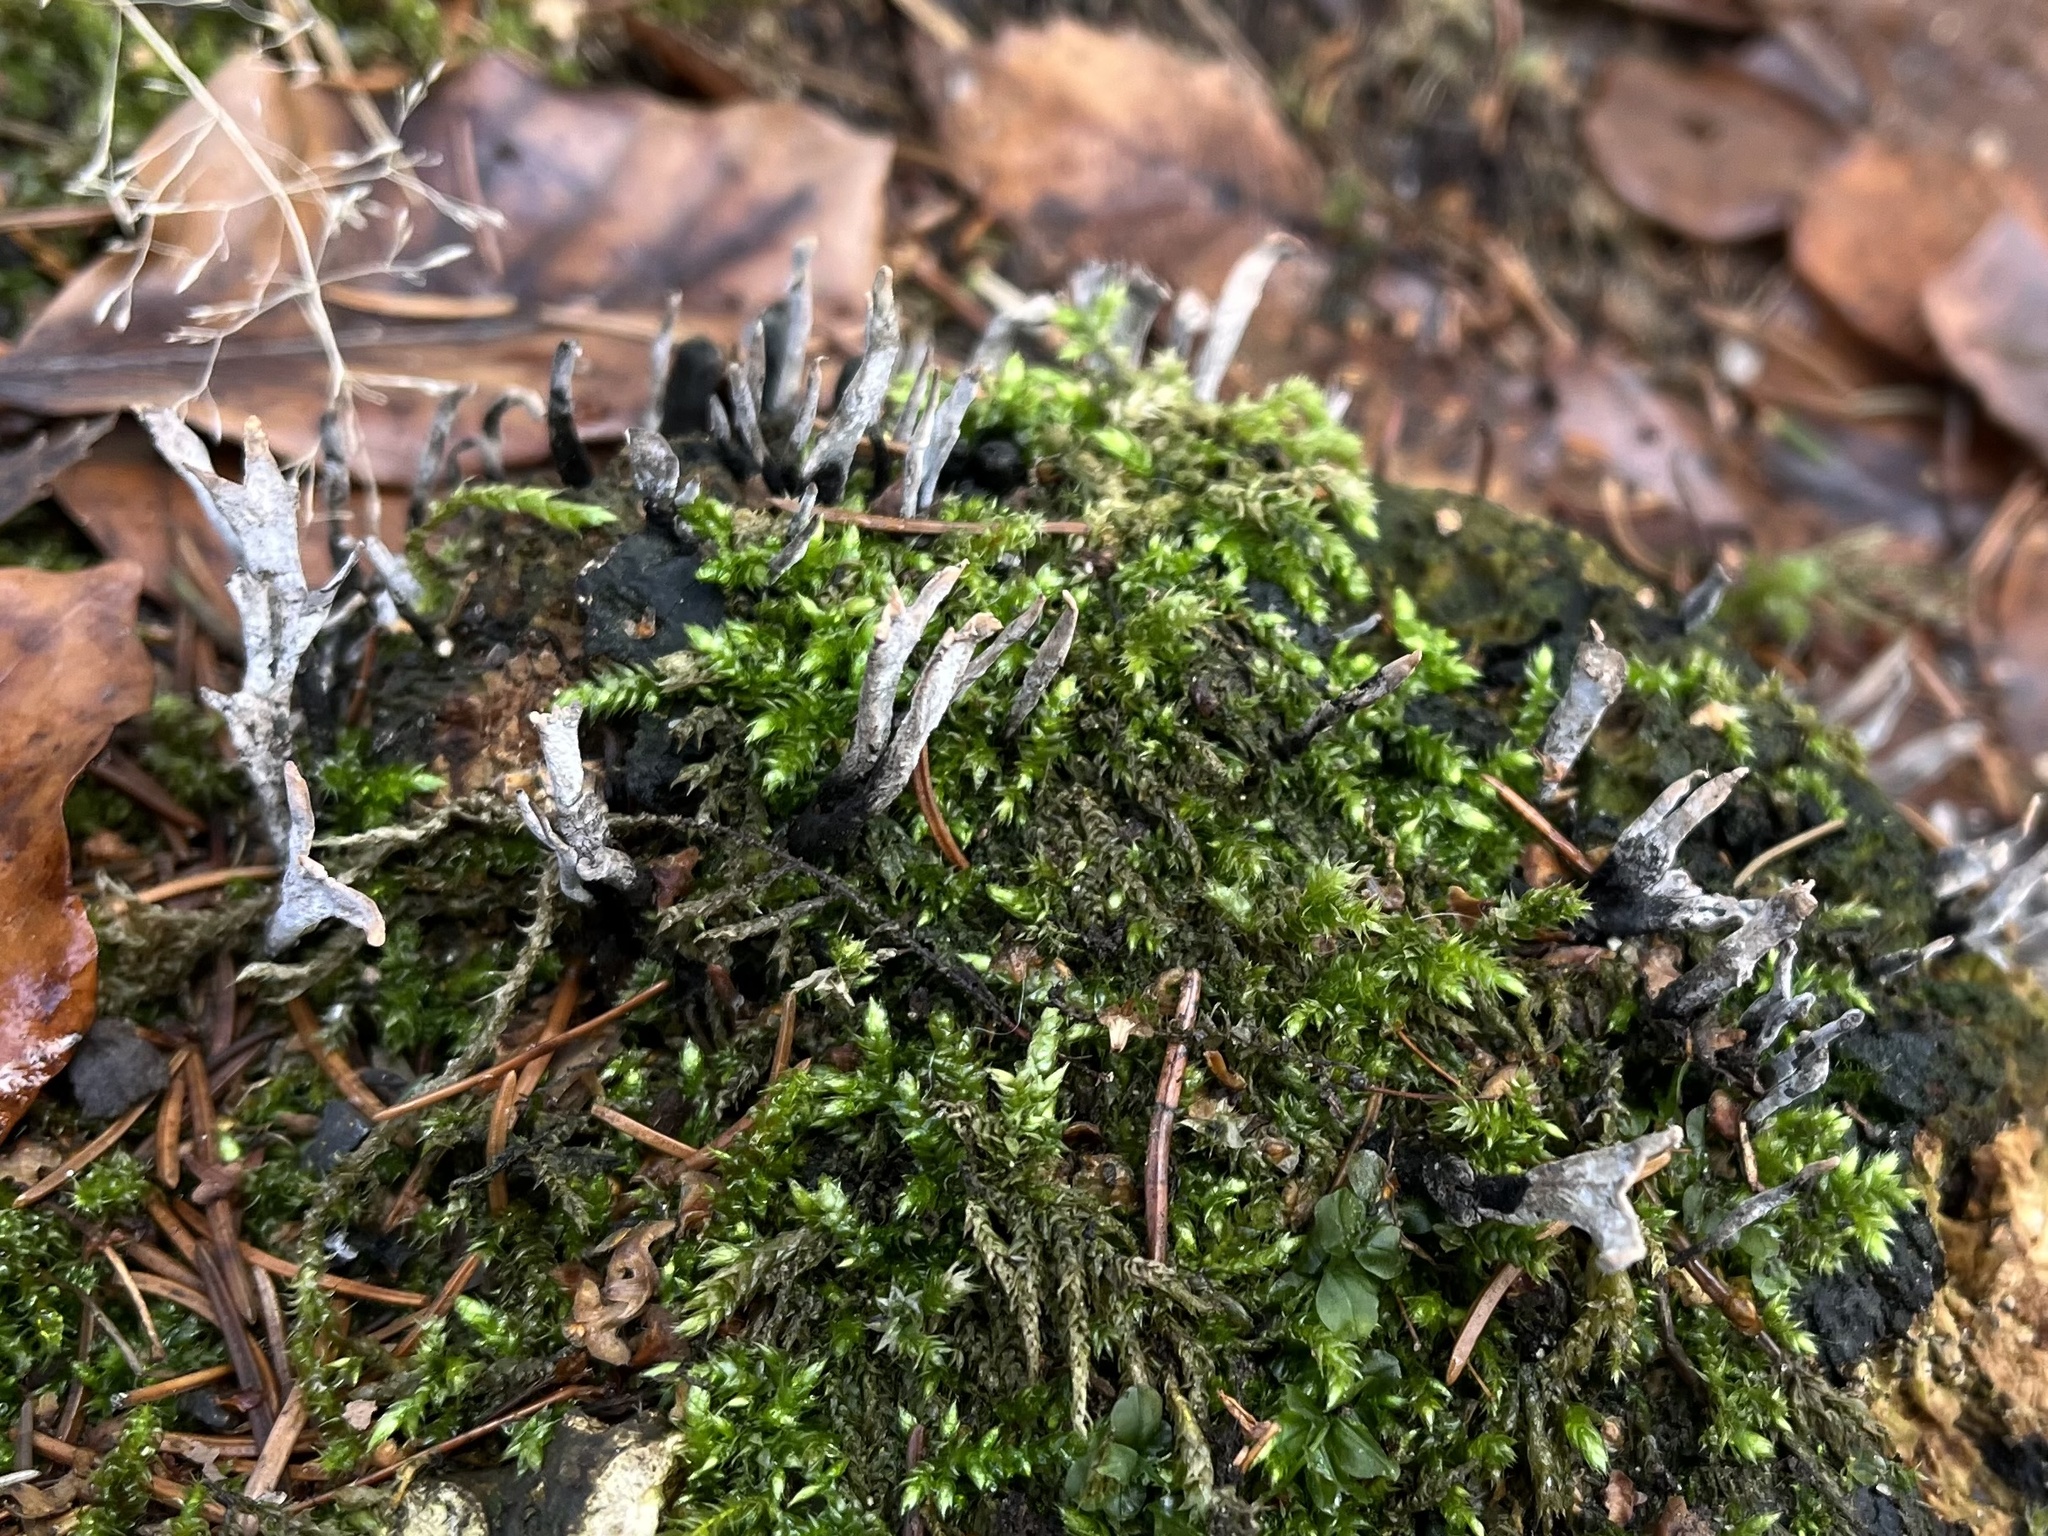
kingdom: Fungi
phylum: Ascomycota
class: Sordariomycetes
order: Xylariales
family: Xylariaceae
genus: Xylaria
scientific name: Xylaria hypoxylon
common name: Candle-snuff fungus
